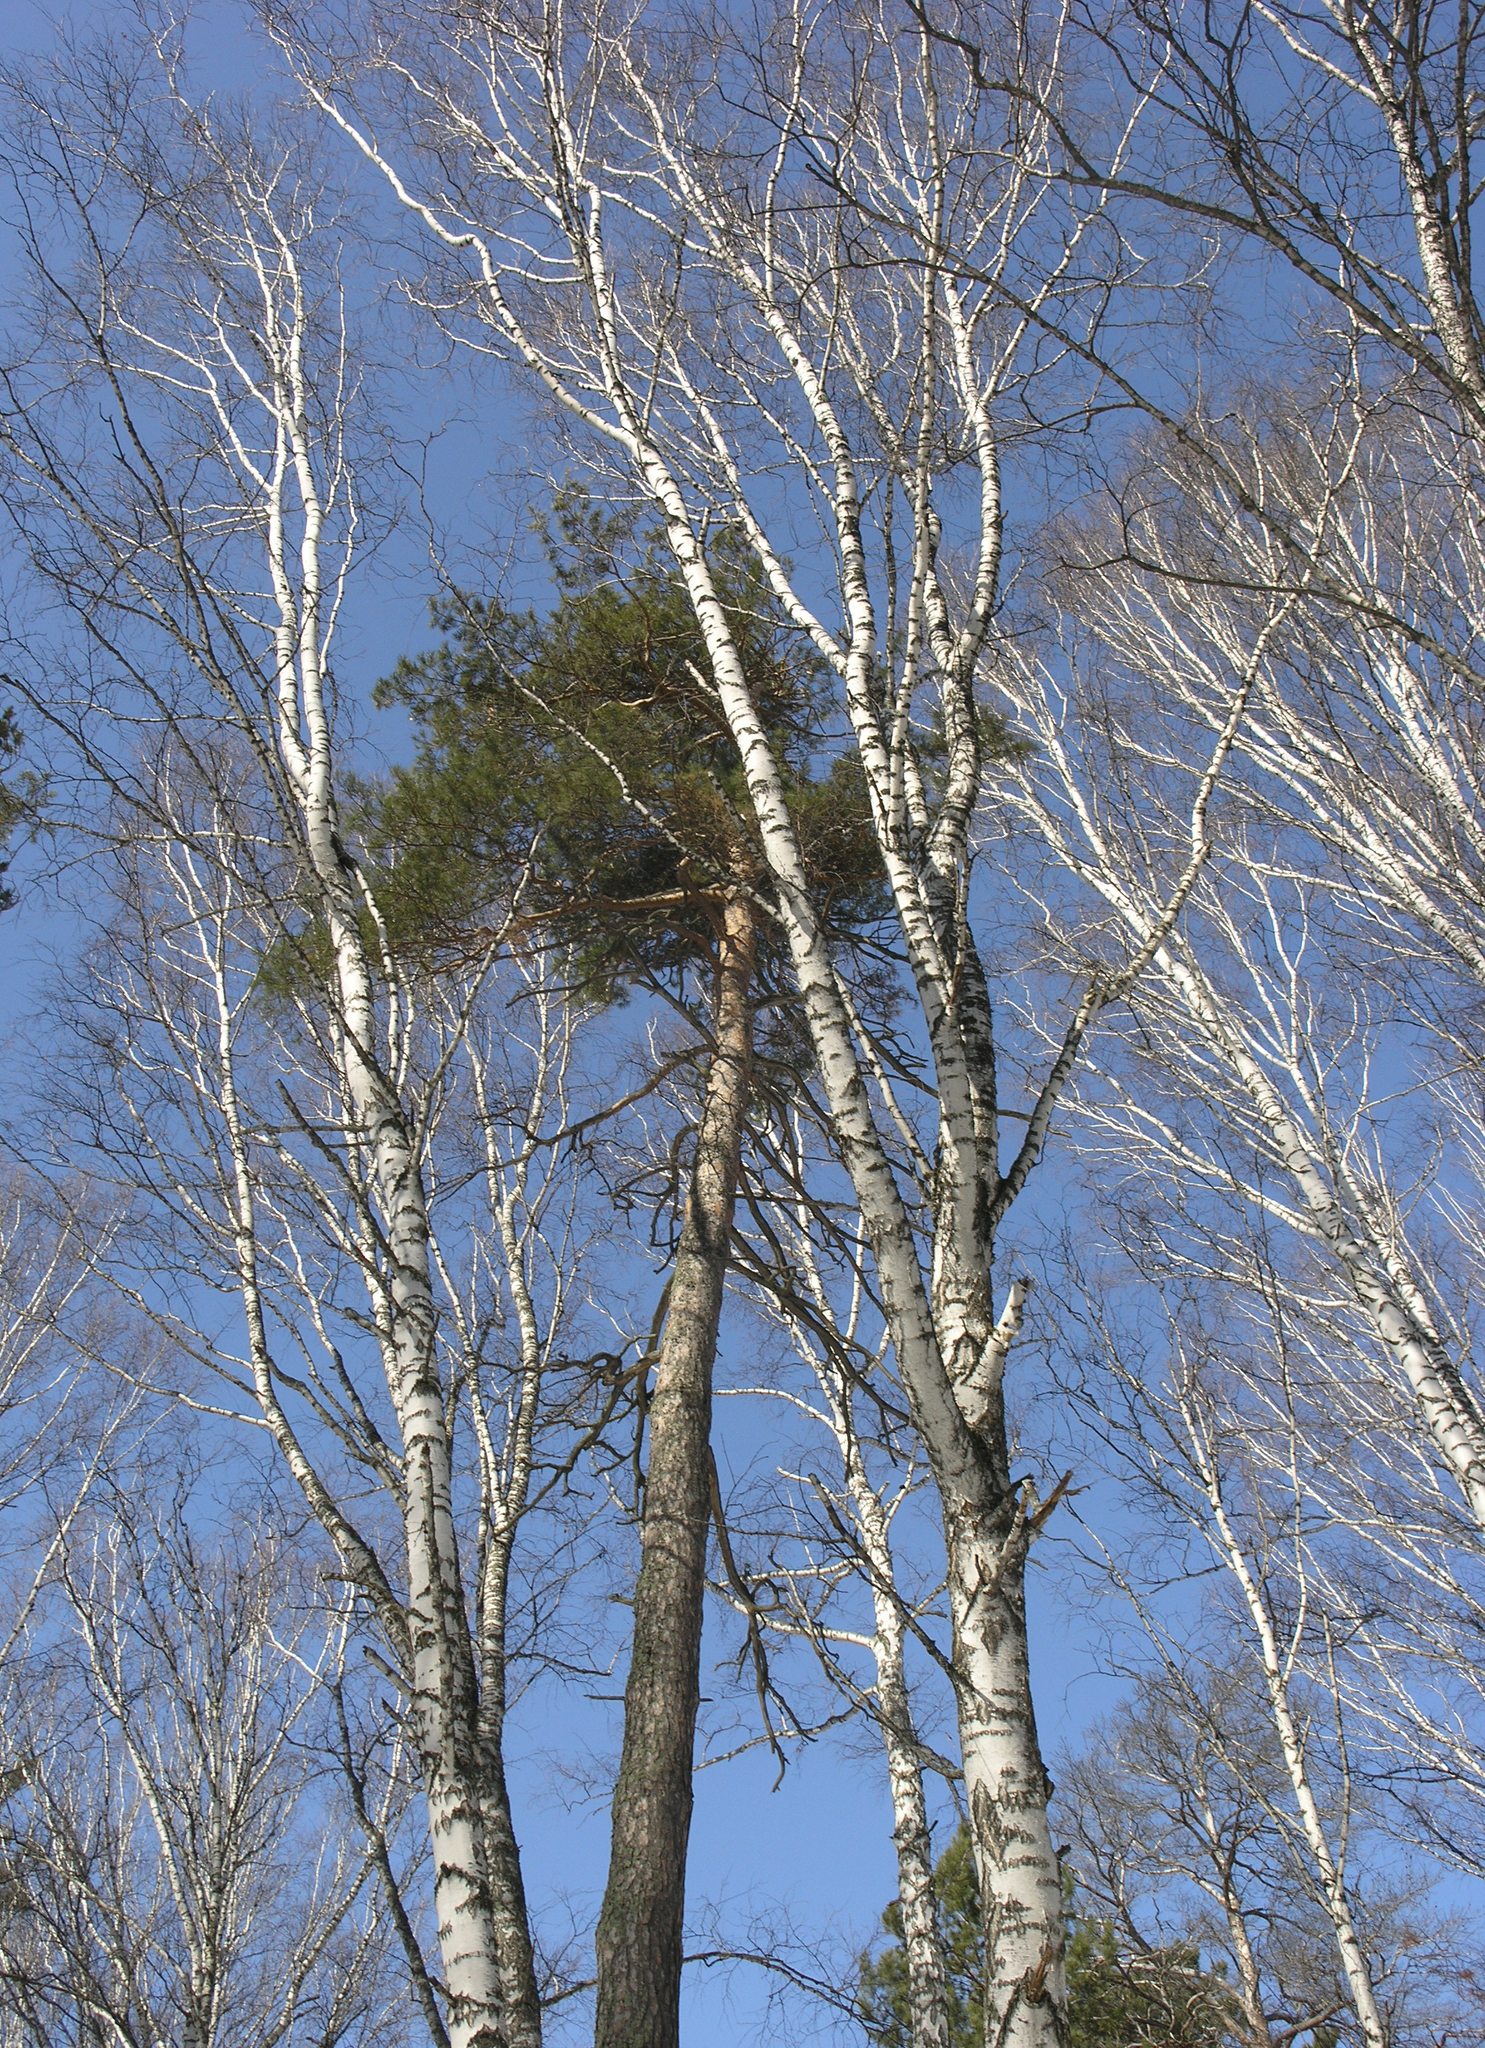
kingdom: Plantae
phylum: Tracheophyta
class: Pinopsida
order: Pinales
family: Pinaceae
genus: Pinus
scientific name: Pinus sylvestris
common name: Scots pine
